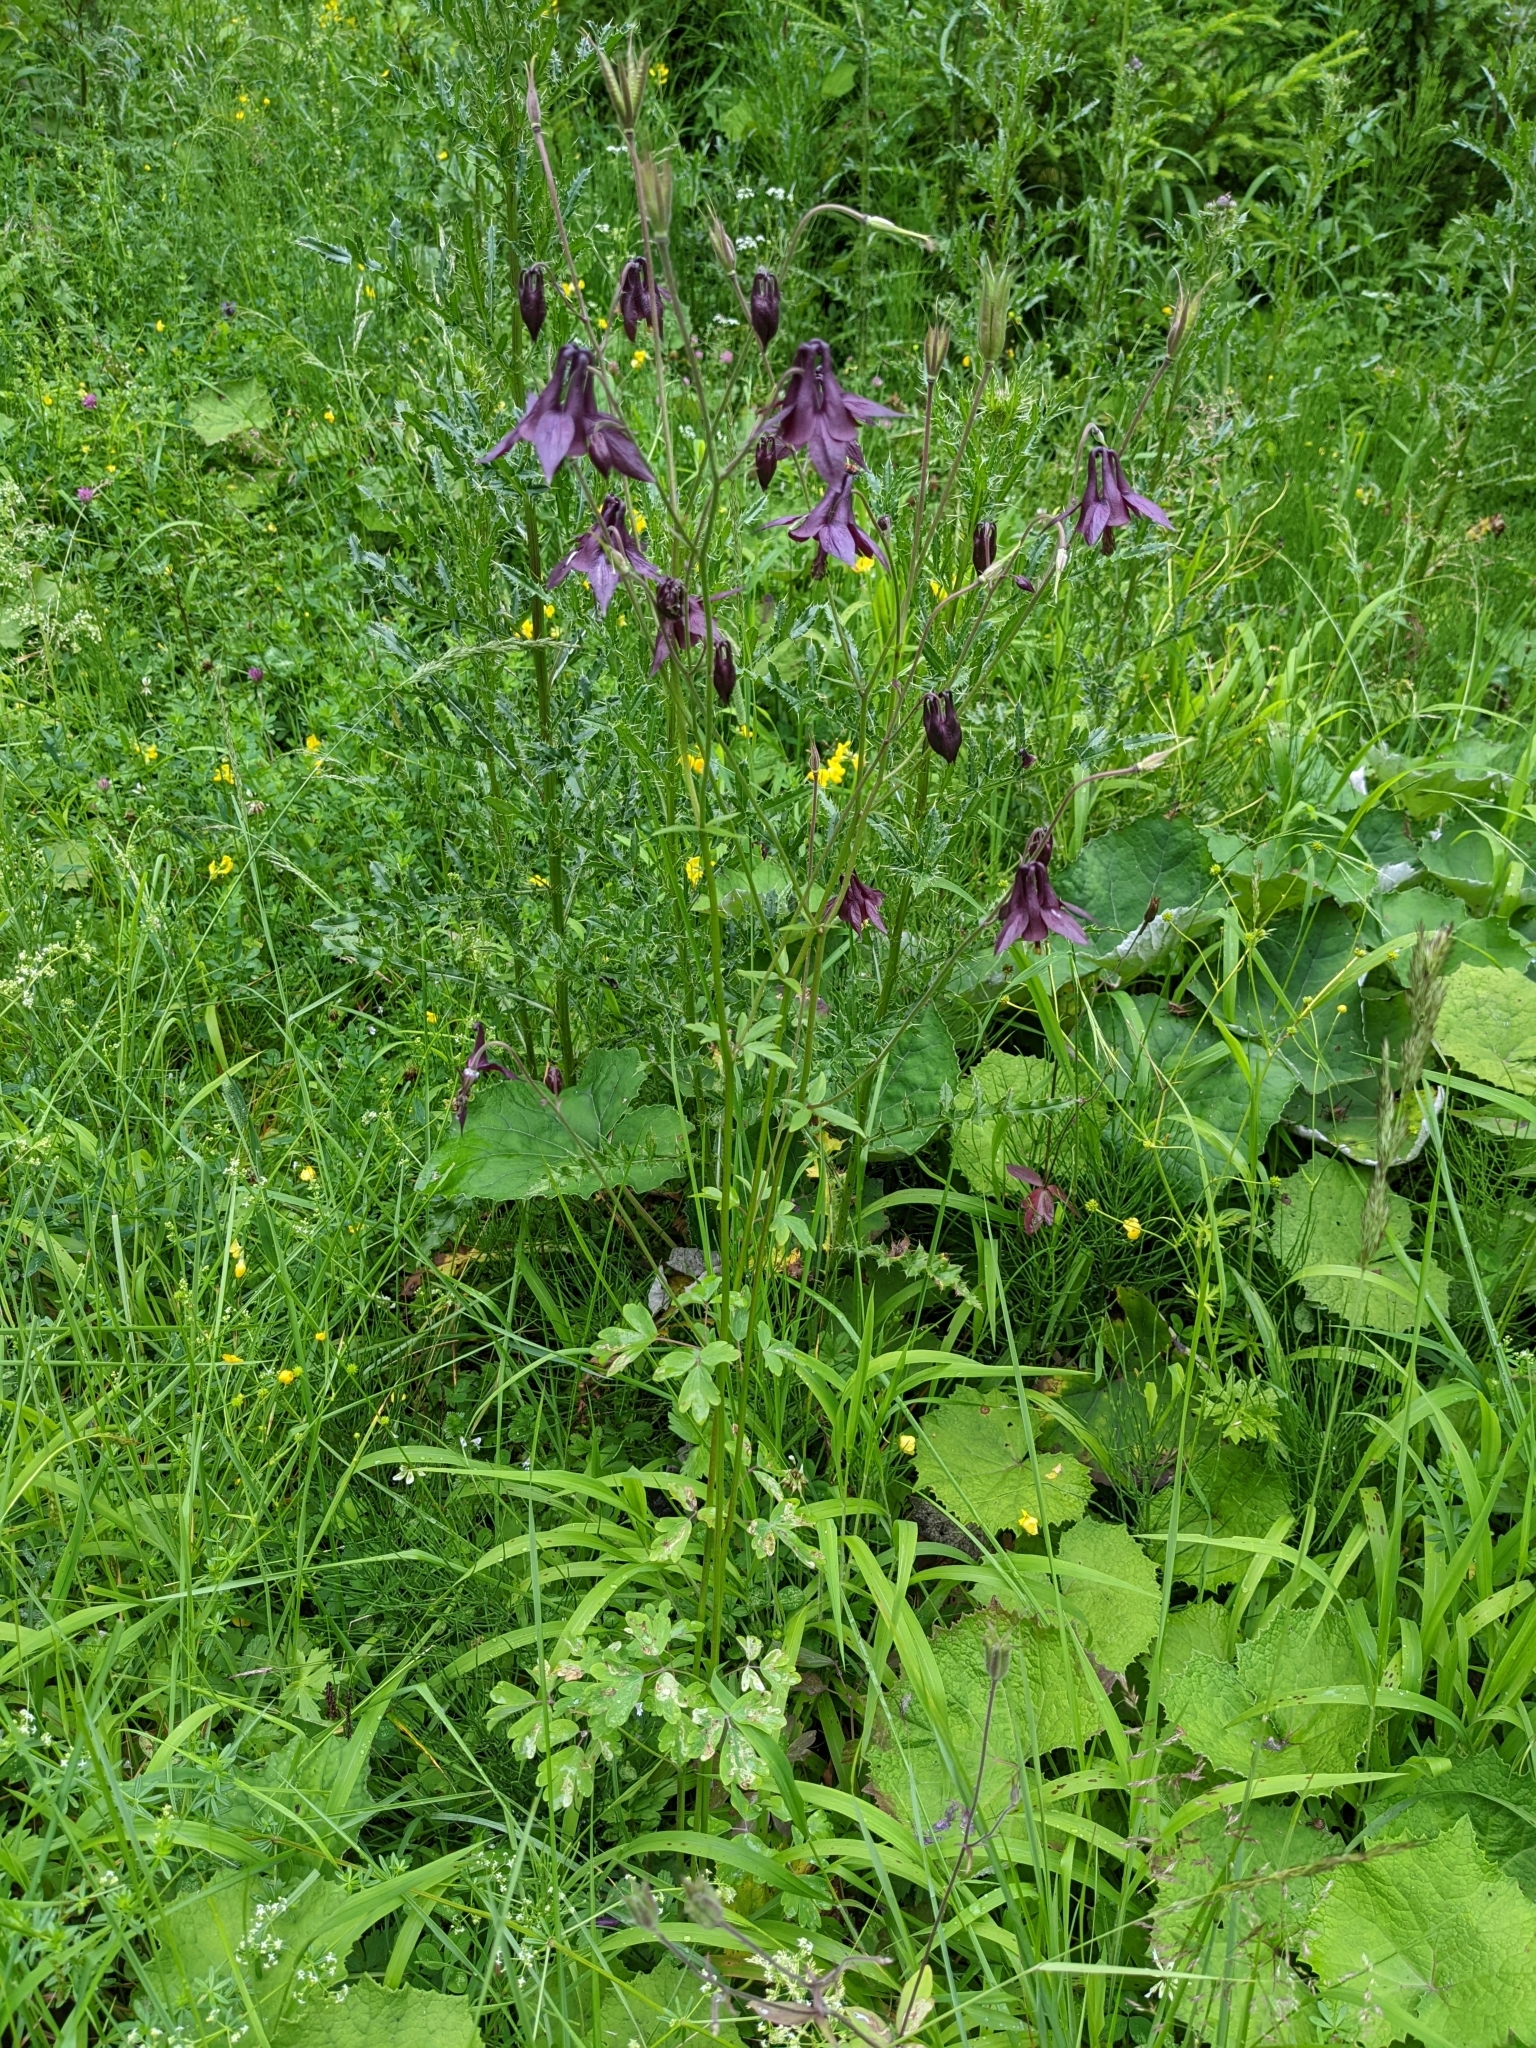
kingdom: Plantae
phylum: Tracheophyta
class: Magnoliopsida
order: Ranunculales
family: Ranunculaceae
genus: Aquilegia
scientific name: Aquilegia atrata
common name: Dark columbine
